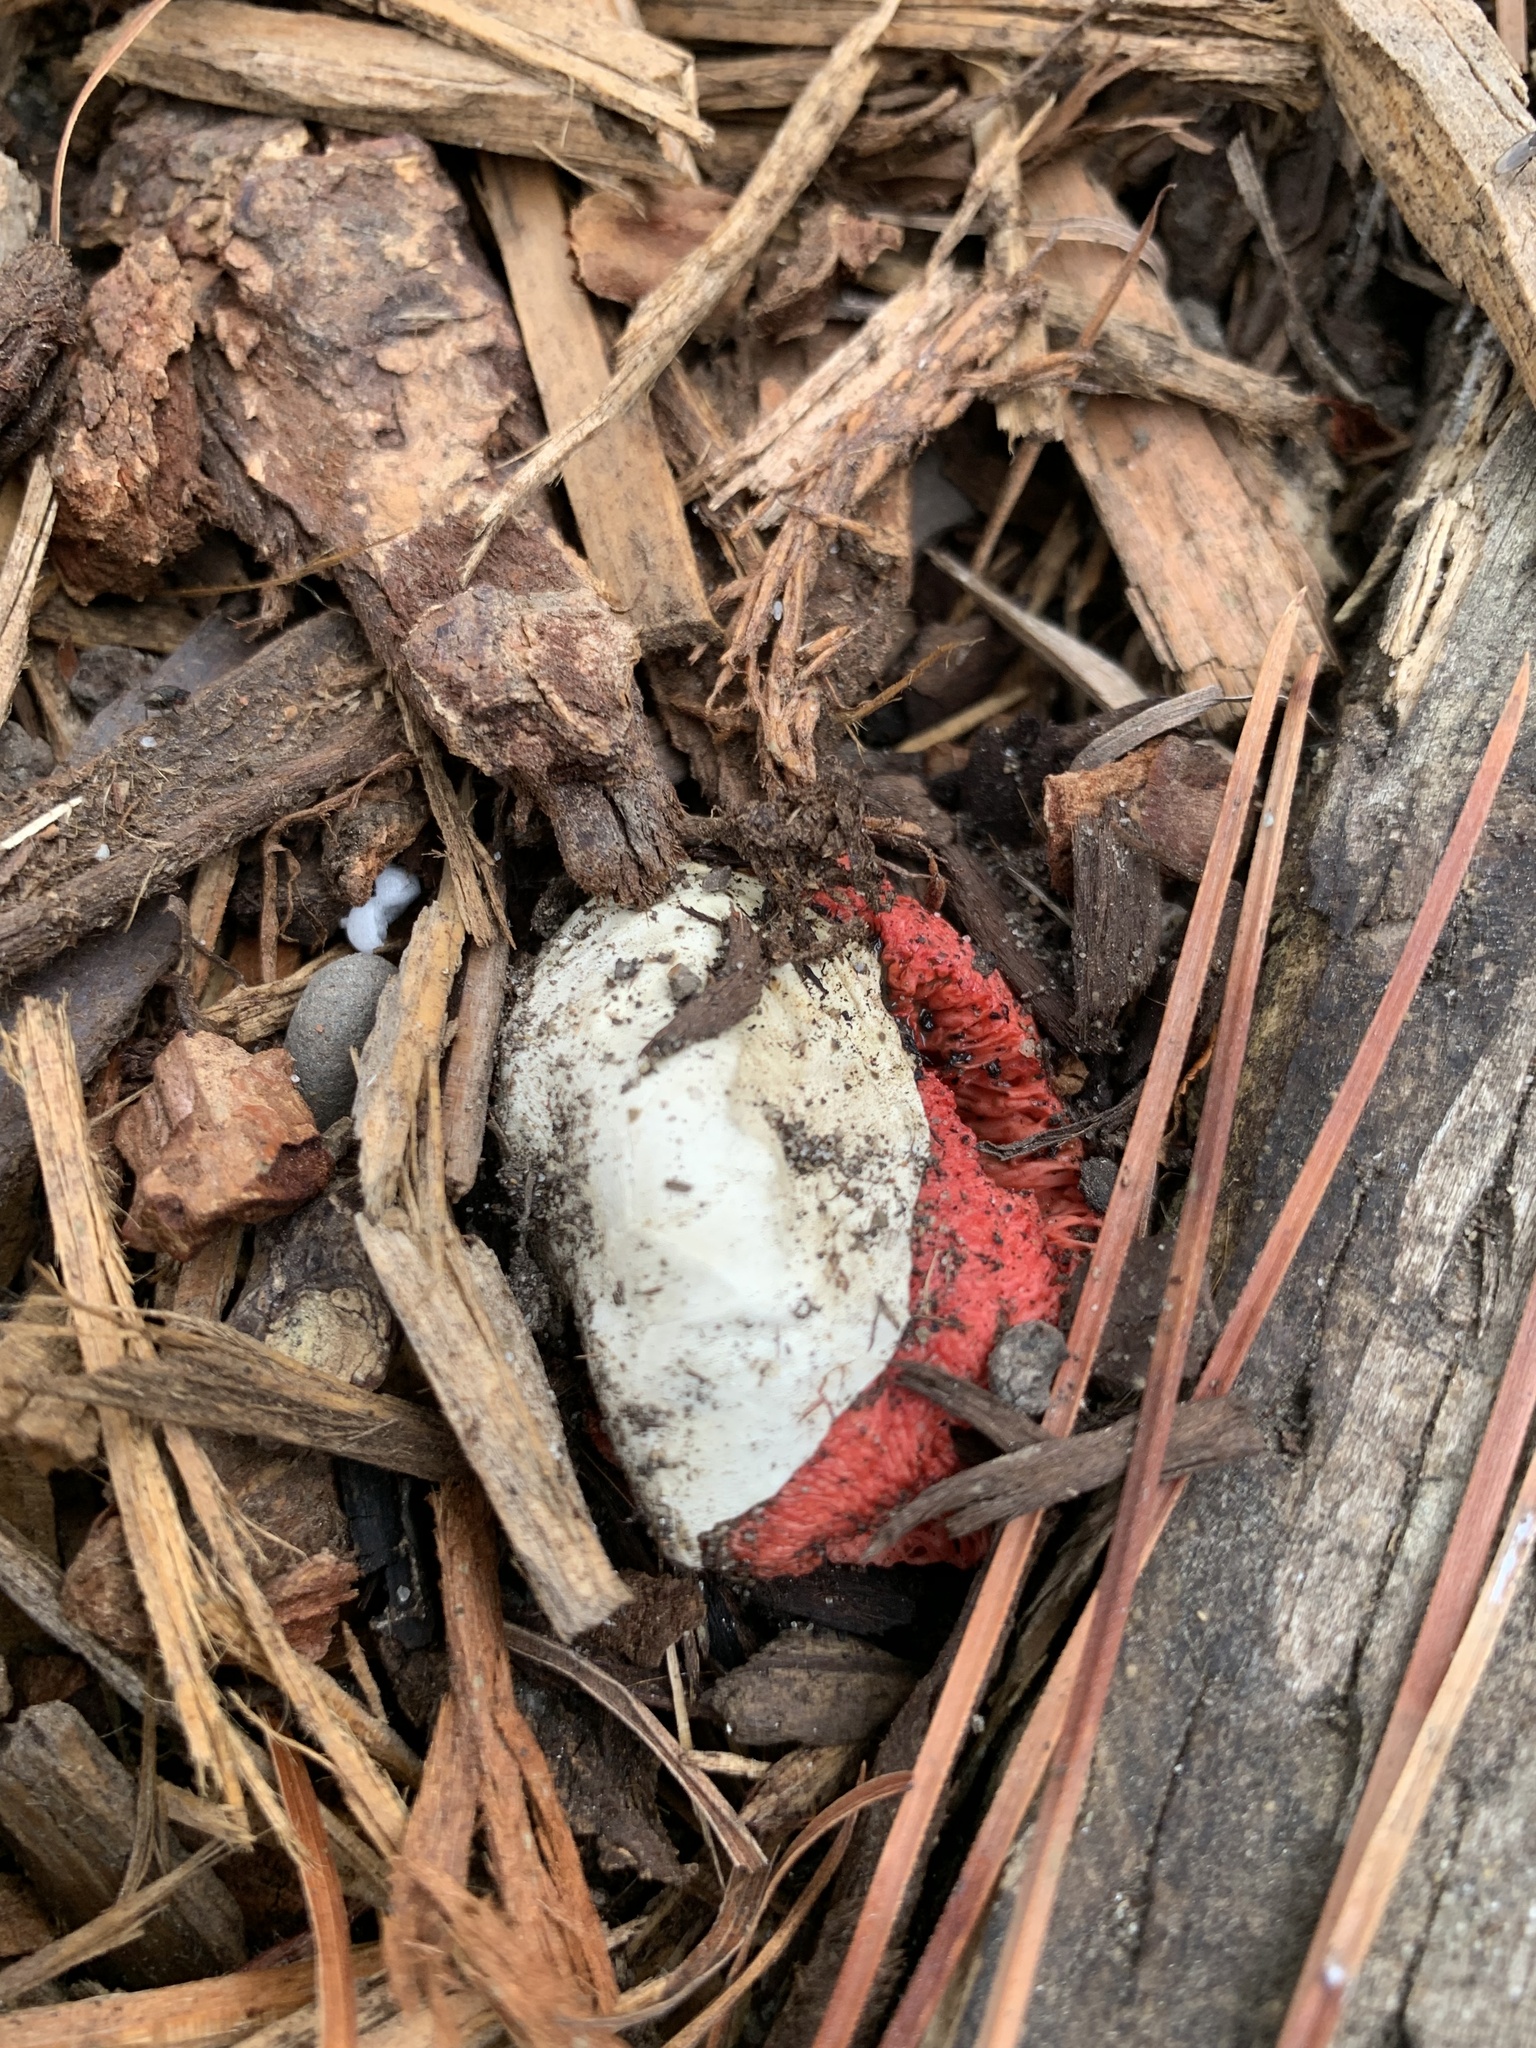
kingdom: Fungi
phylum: Basidiomycota
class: Agaricomycetes
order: Phallales
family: Phallaceae
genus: Clathrus
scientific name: Clathrus ruber
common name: Red cage
